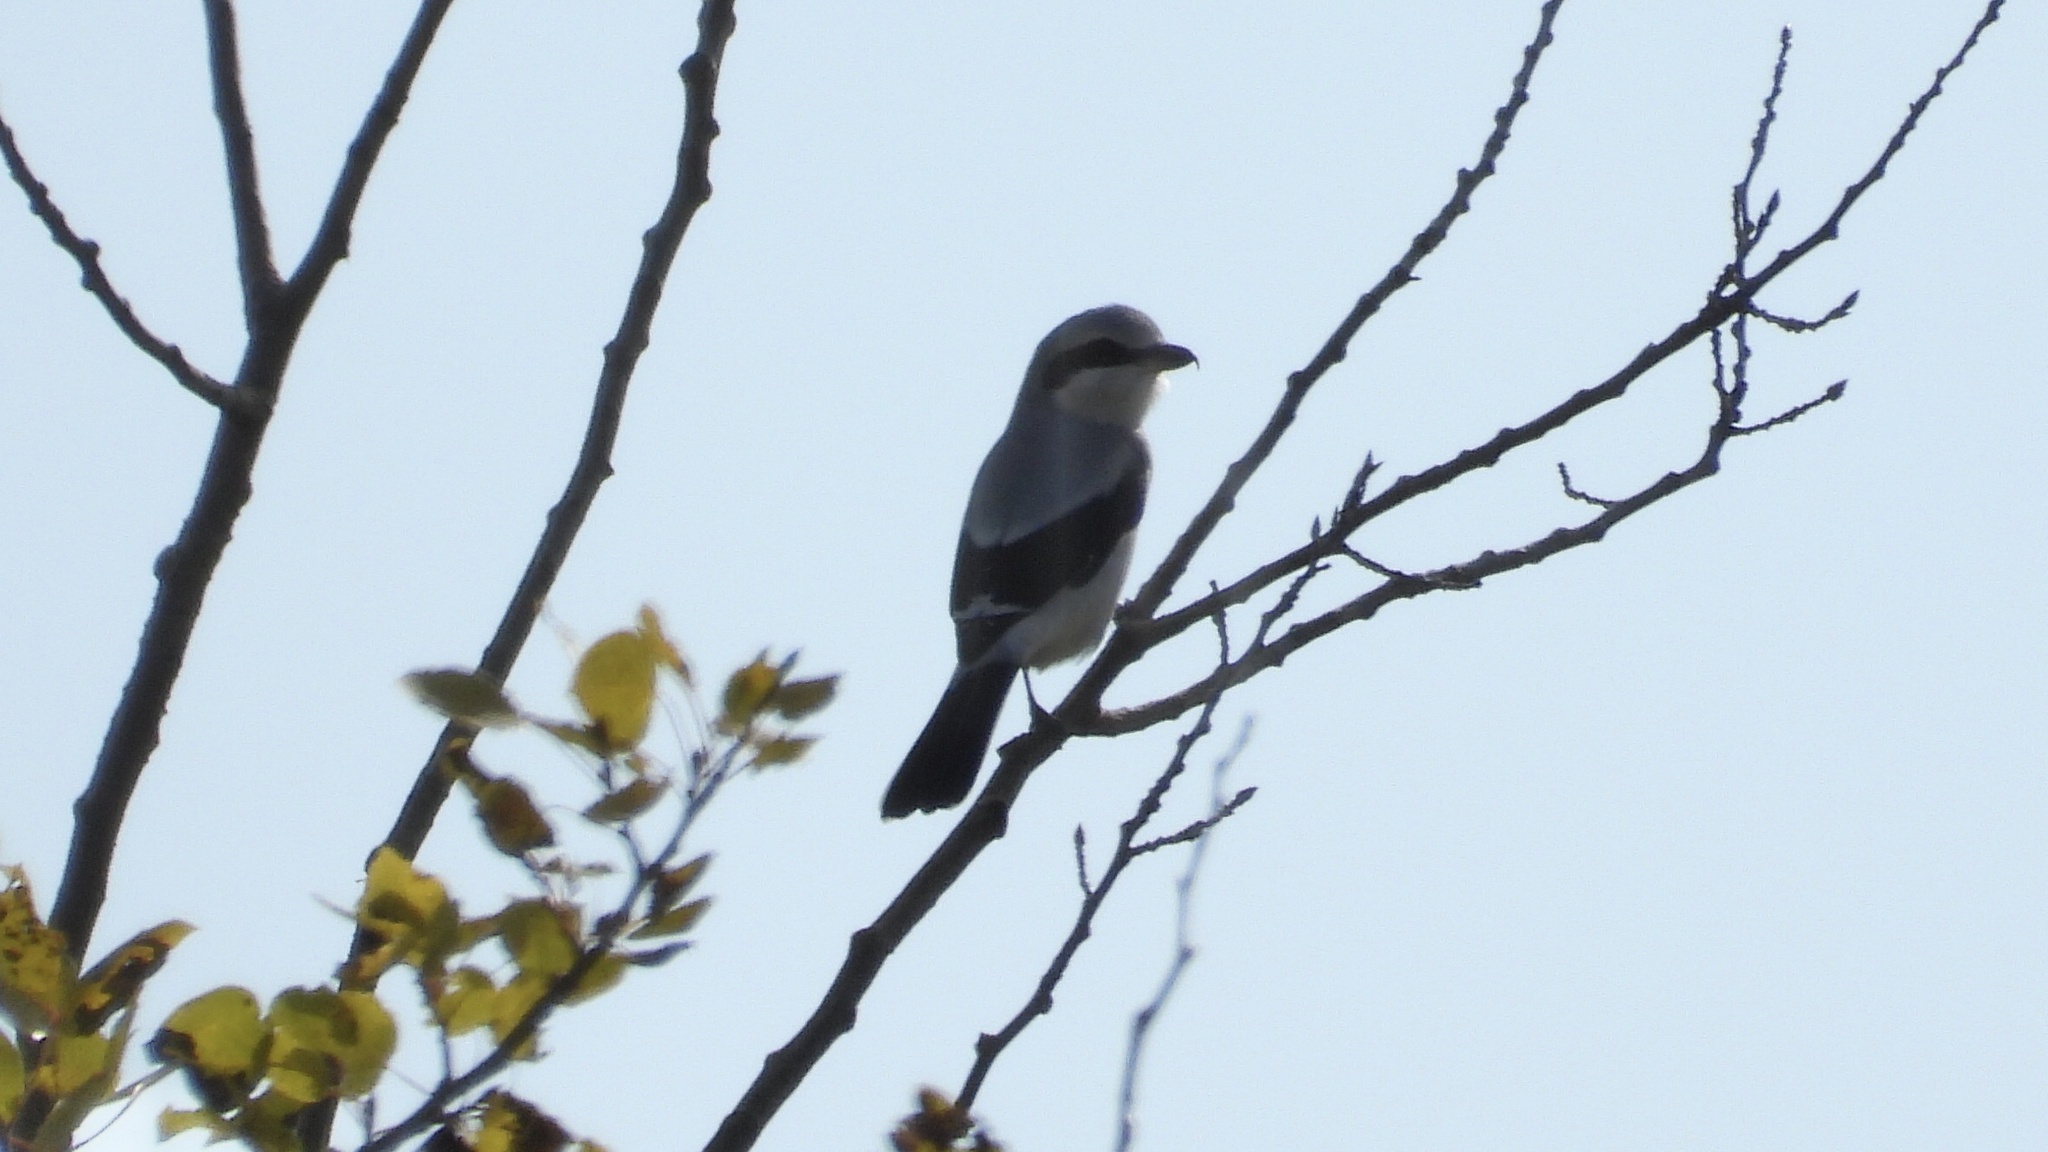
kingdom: Animalia
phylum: Chordata
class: Aves
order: Passeriformes
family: Laniidae
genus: Lanius
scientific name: Lanius borealis
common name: Northern shrike
